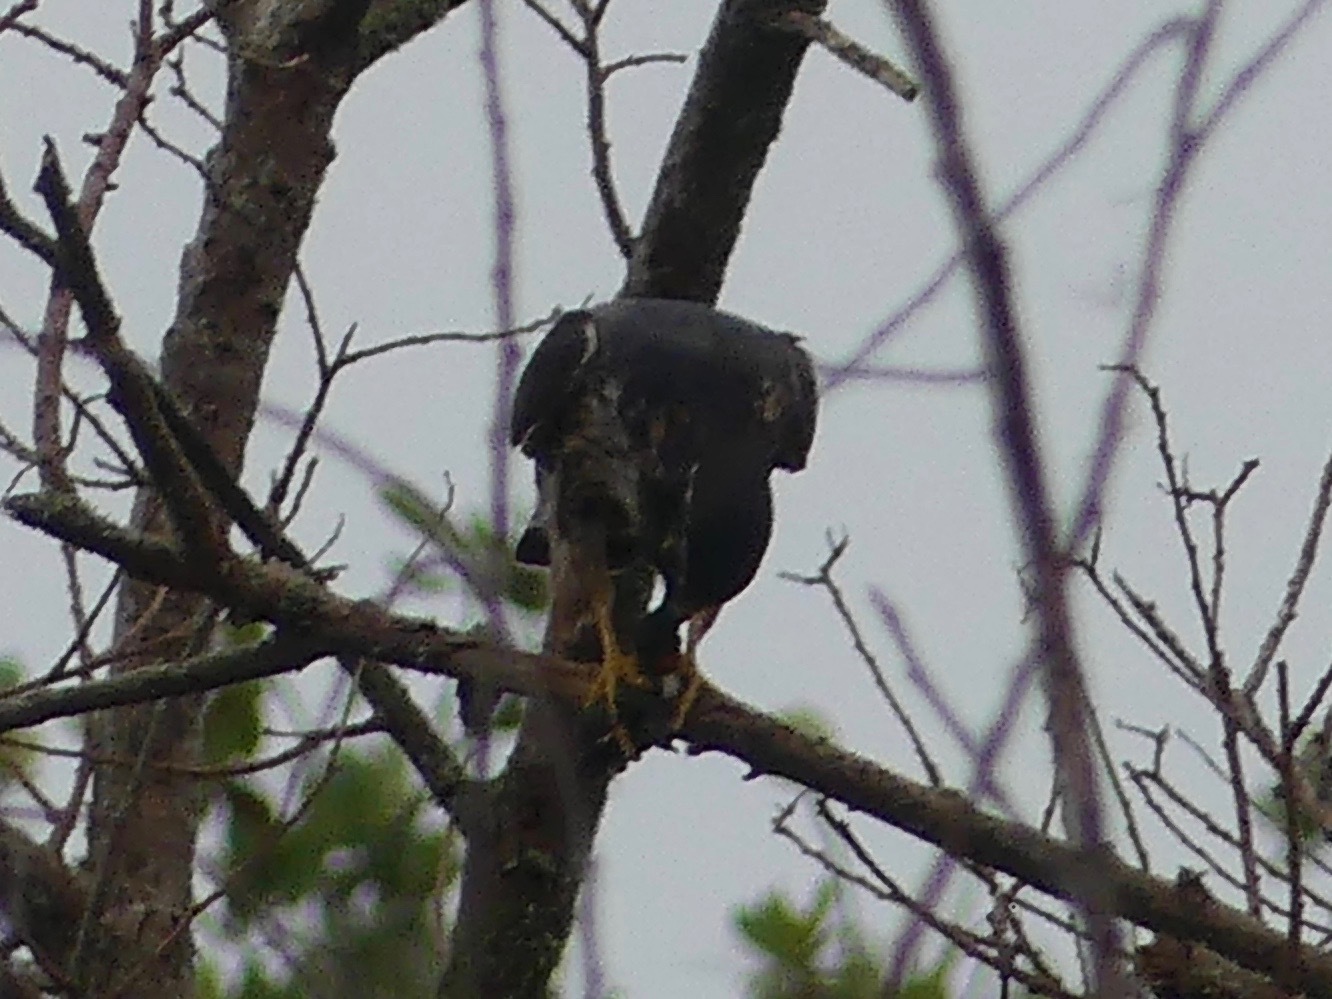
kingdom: Animalia
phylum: Chordata
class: Aves
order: Falconiformes
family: Falconidae
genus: Falco
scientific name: Falco columbarius
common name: Merlin
